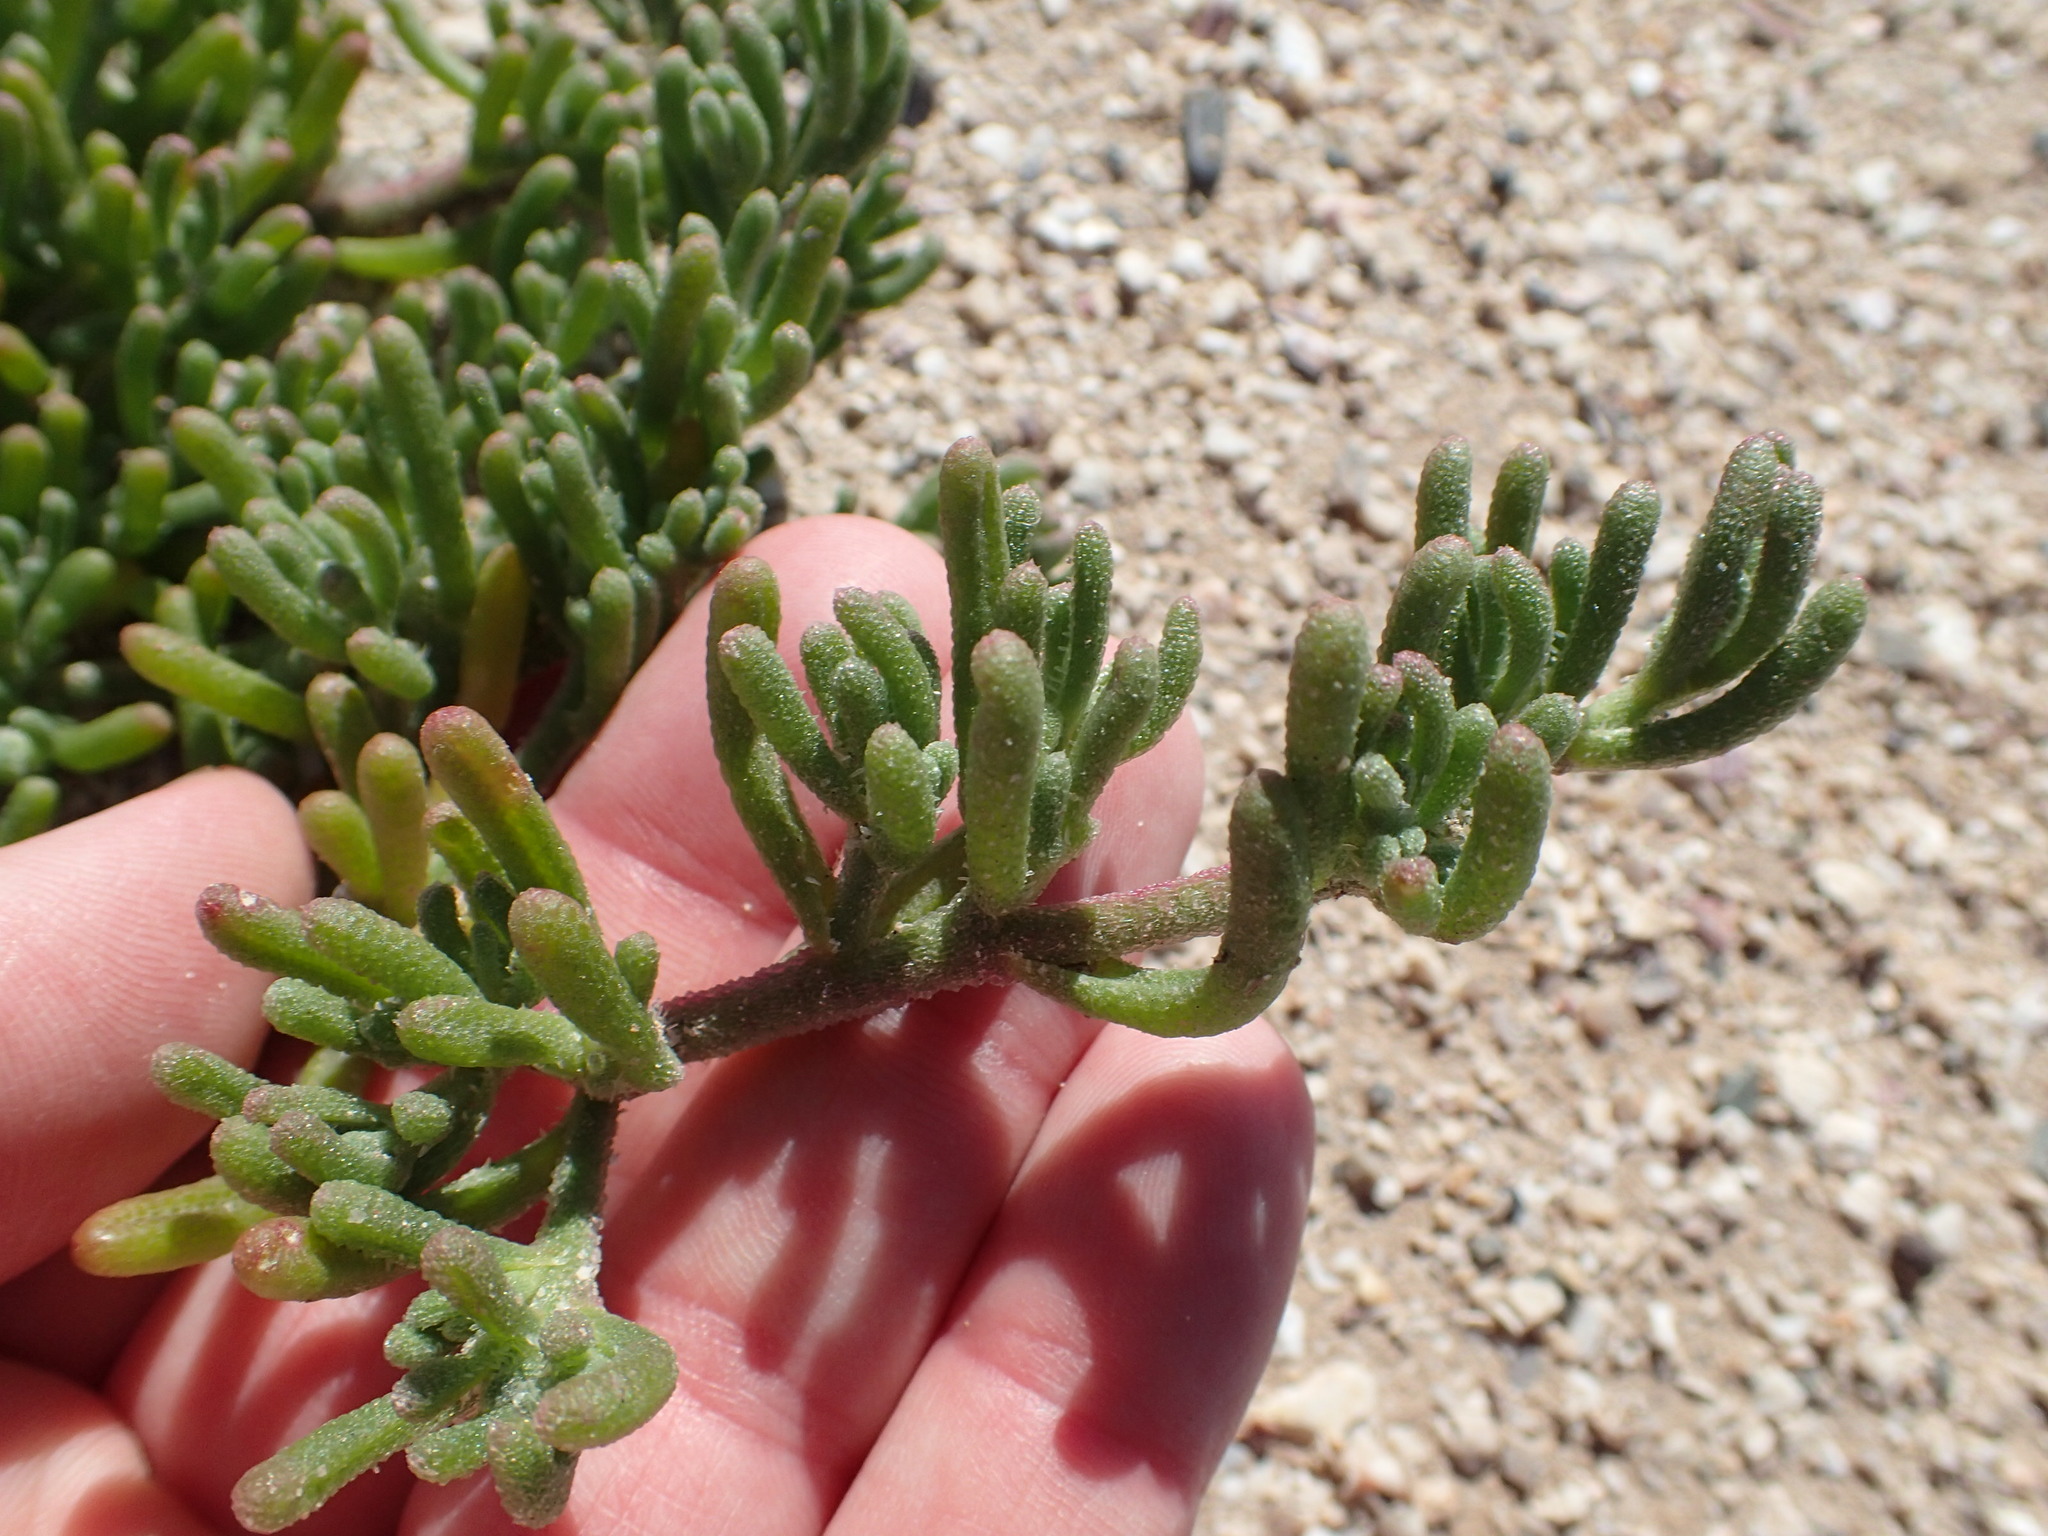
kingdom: Plantae
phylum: Tracheophyta
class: Magnoliopsida
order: Caryophyllales
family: Aizoaceae
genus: Mesembryanthemum
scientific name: Mesembryanthemum nodiflorum
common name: Slenderleaf iceplant
